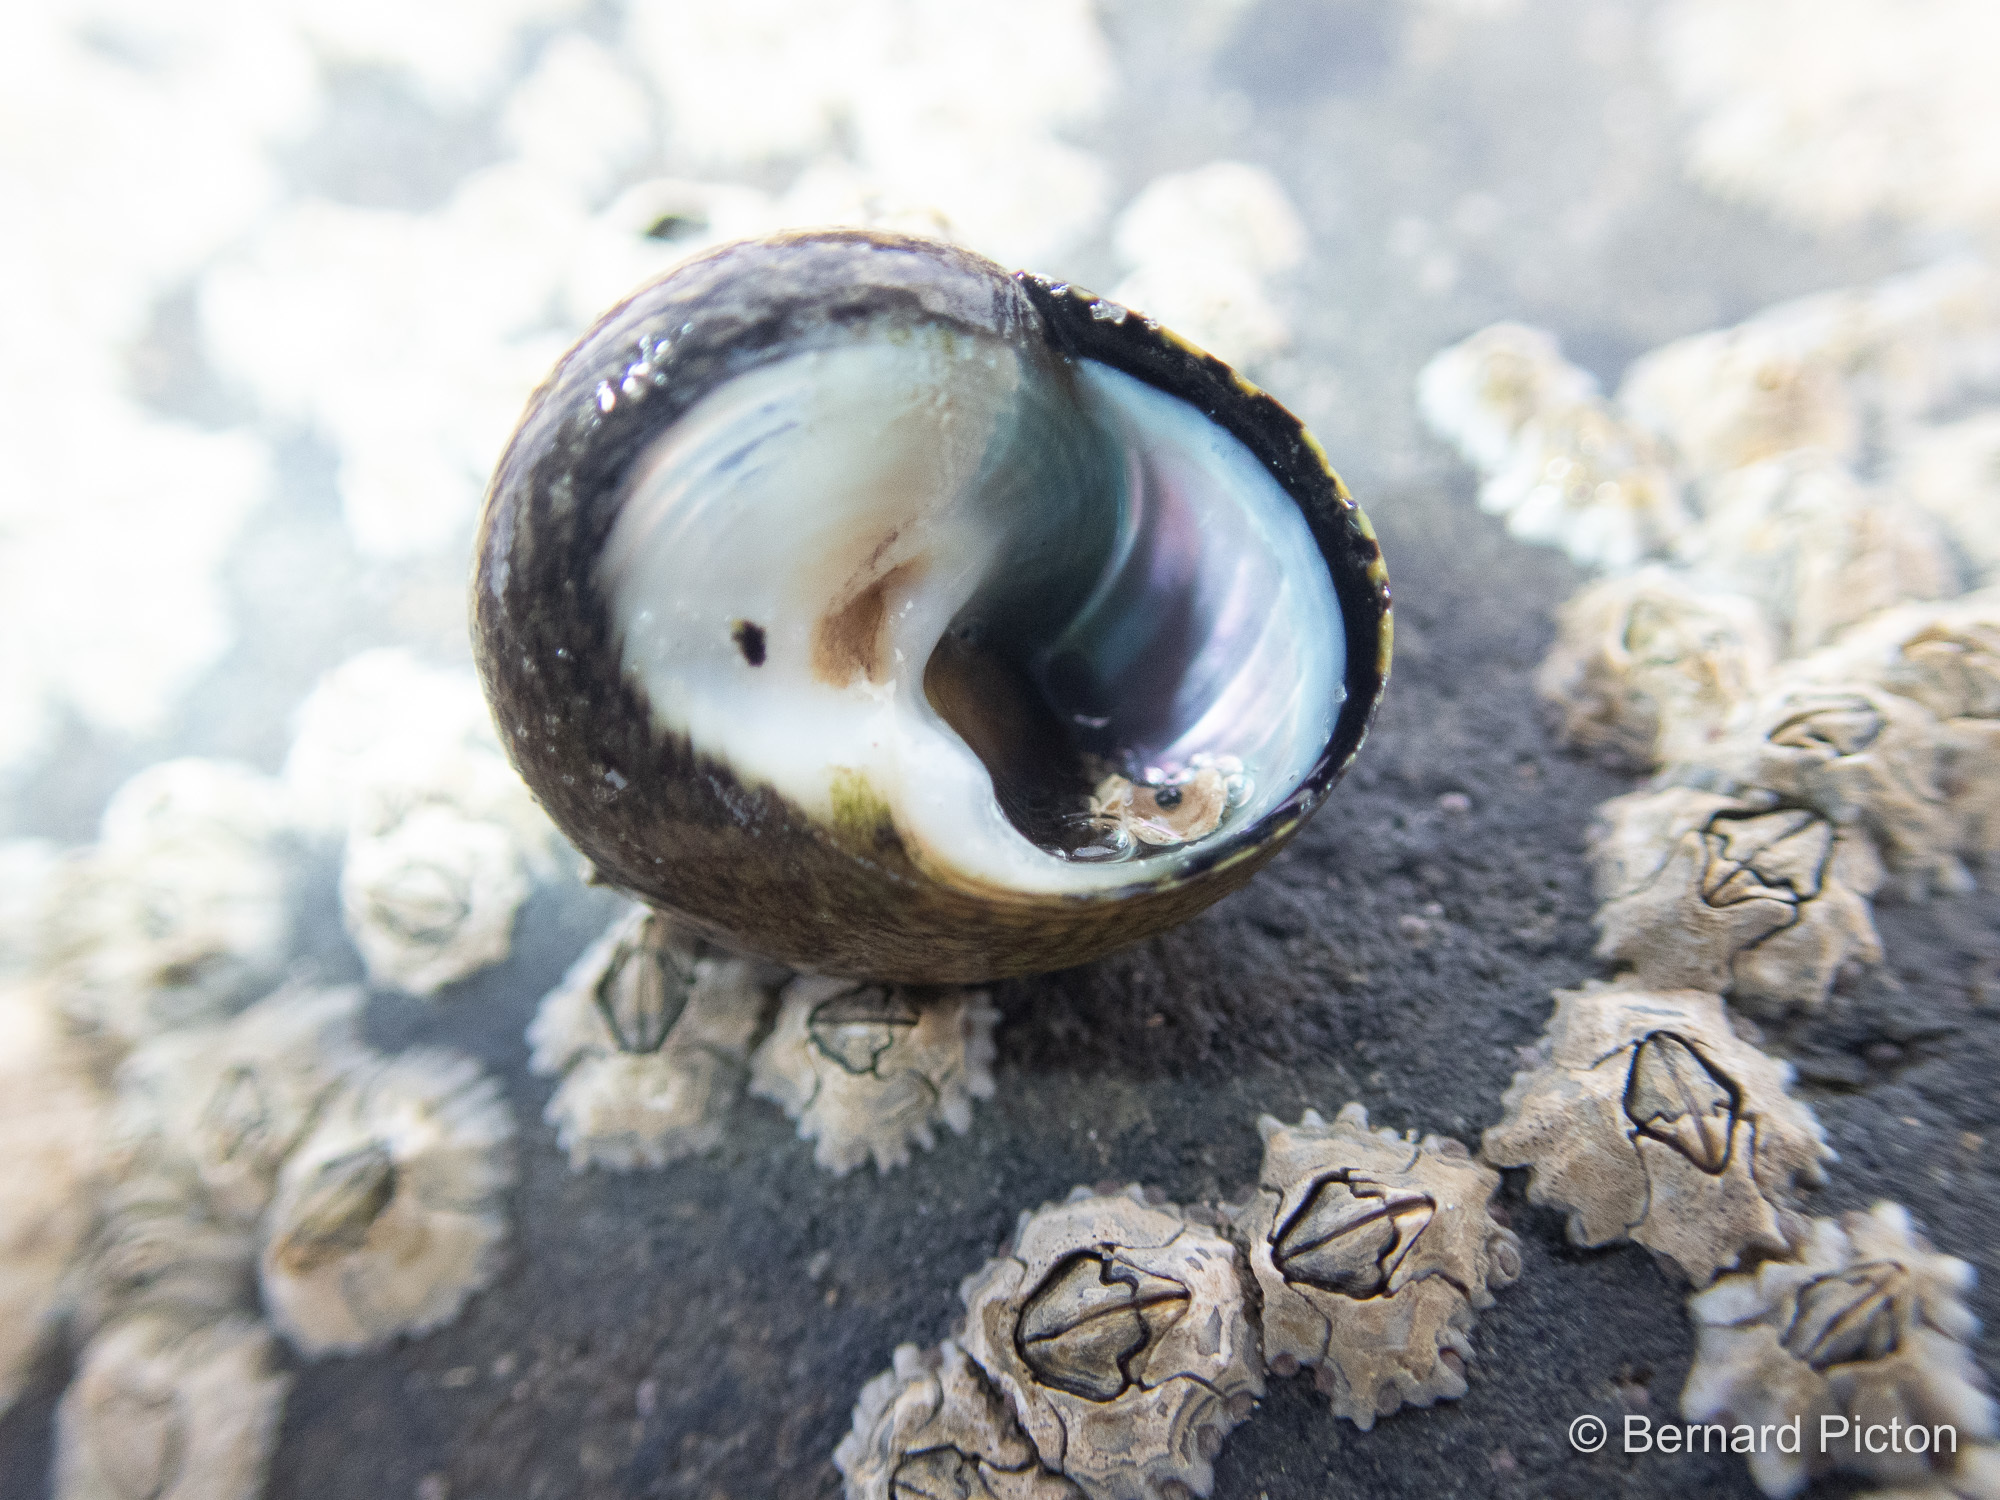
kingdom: Animalia
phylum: Mollusca
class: Gastropoda
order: Trochida
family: Trochidae
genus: Phorcus
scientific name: Phorcus lineatus
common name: Toothed top shell
